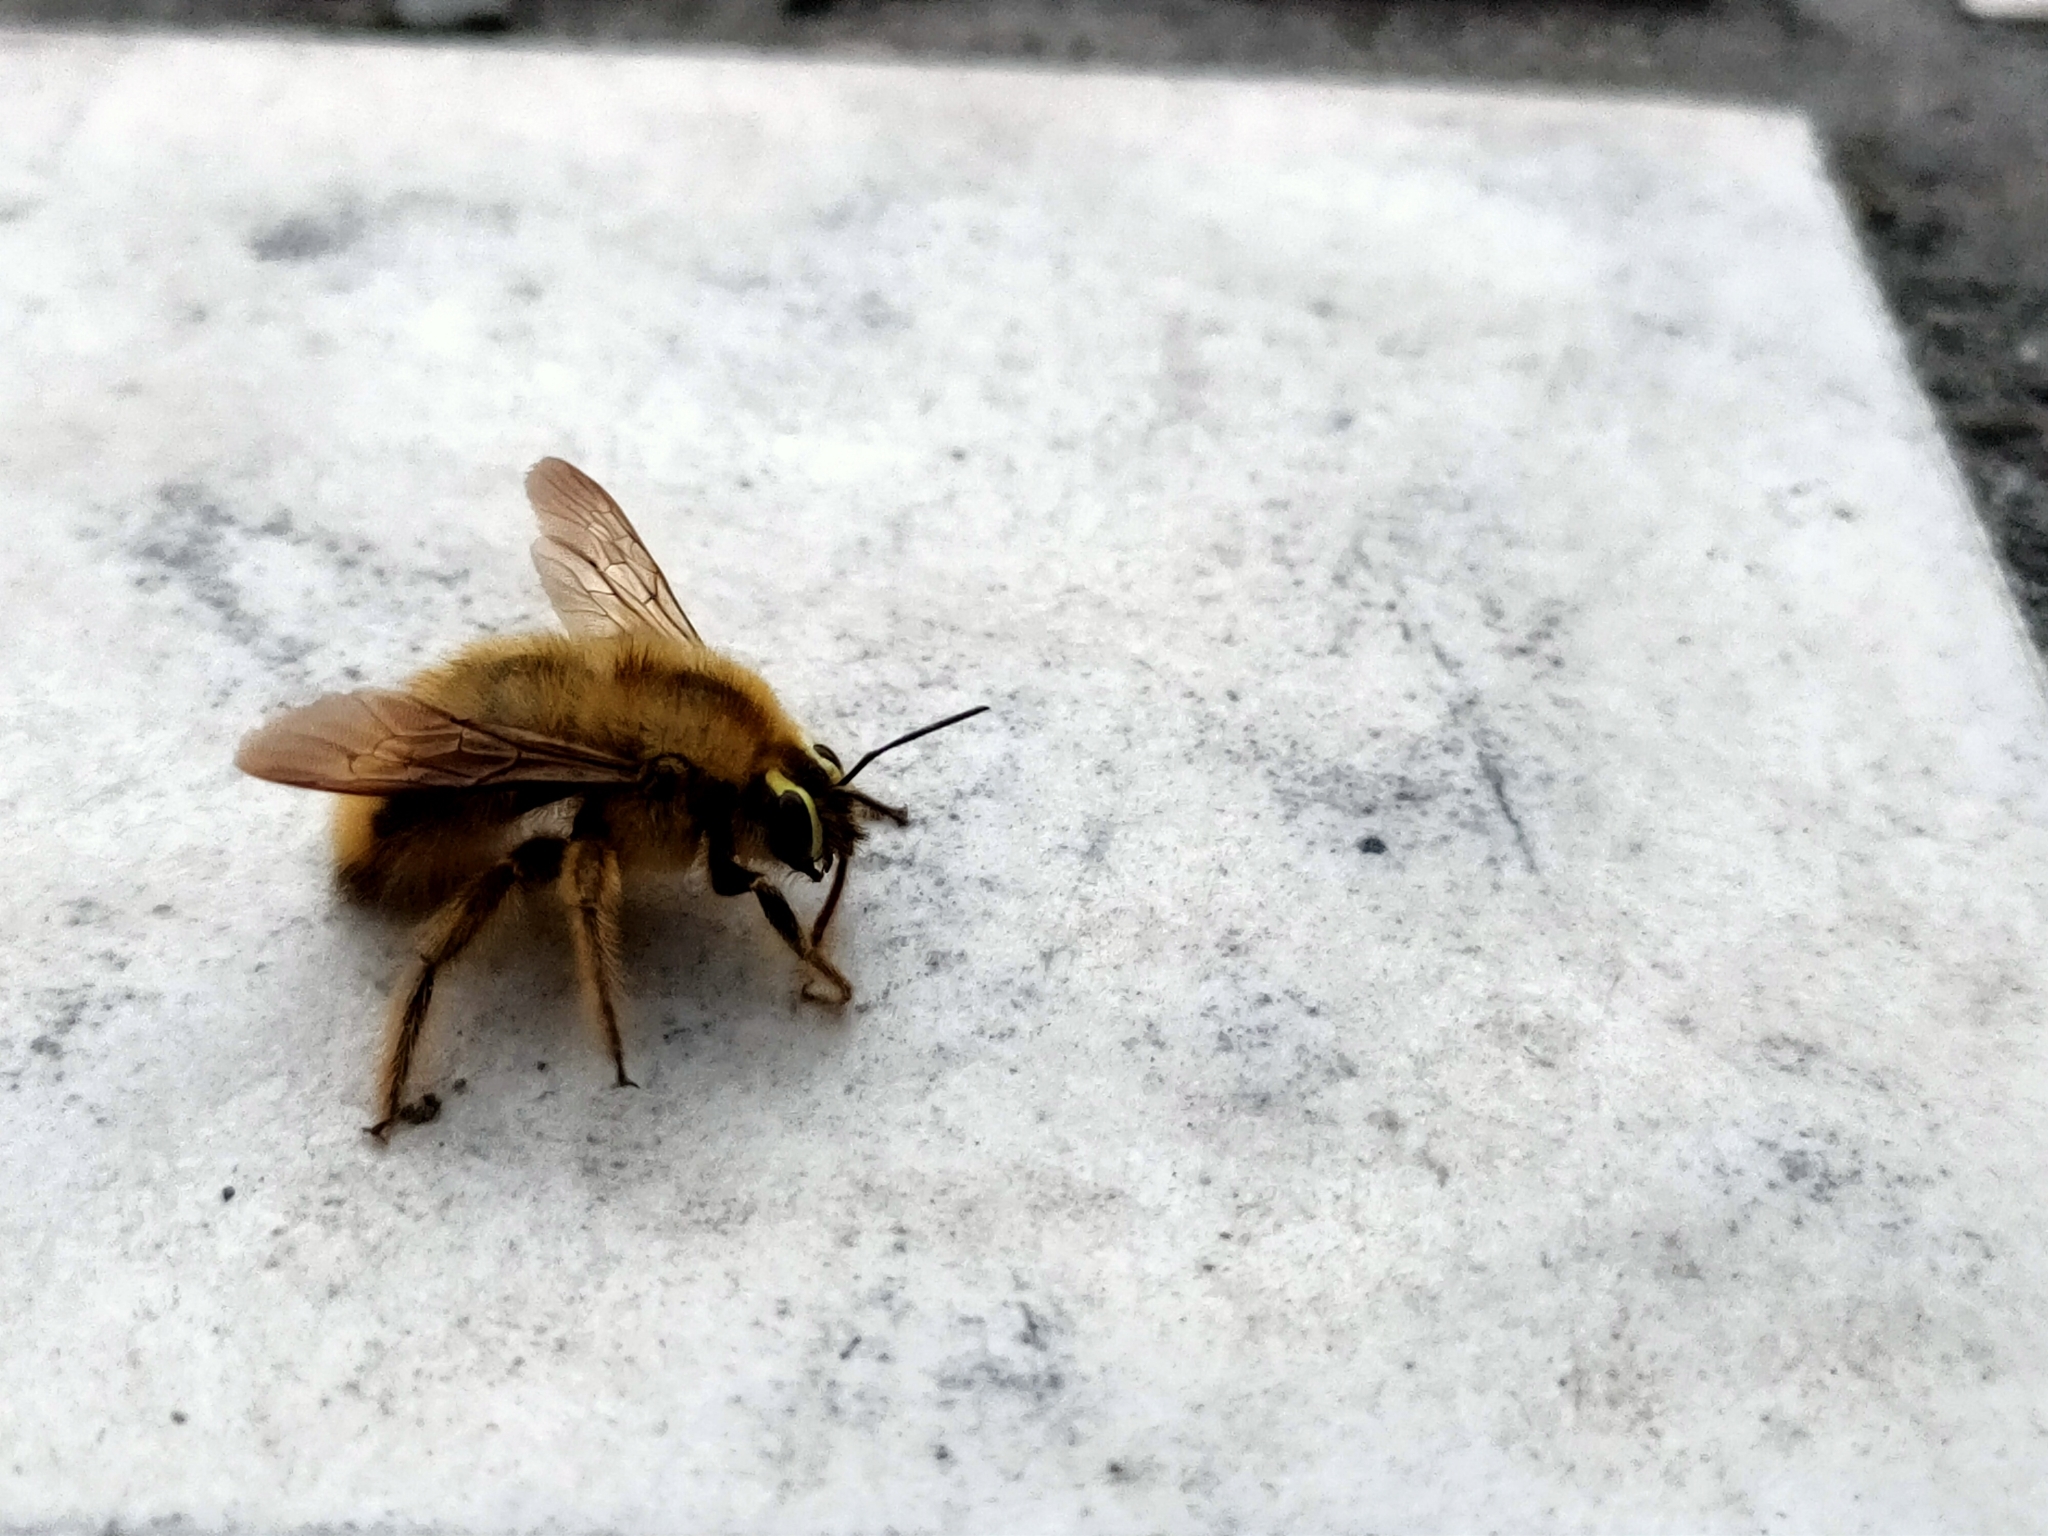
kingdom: Animalia
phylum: Arthropoda
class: Insecta
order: Hymenoptera
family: Apidae
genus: Xylocopa
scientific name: Xylocopa rufipes
